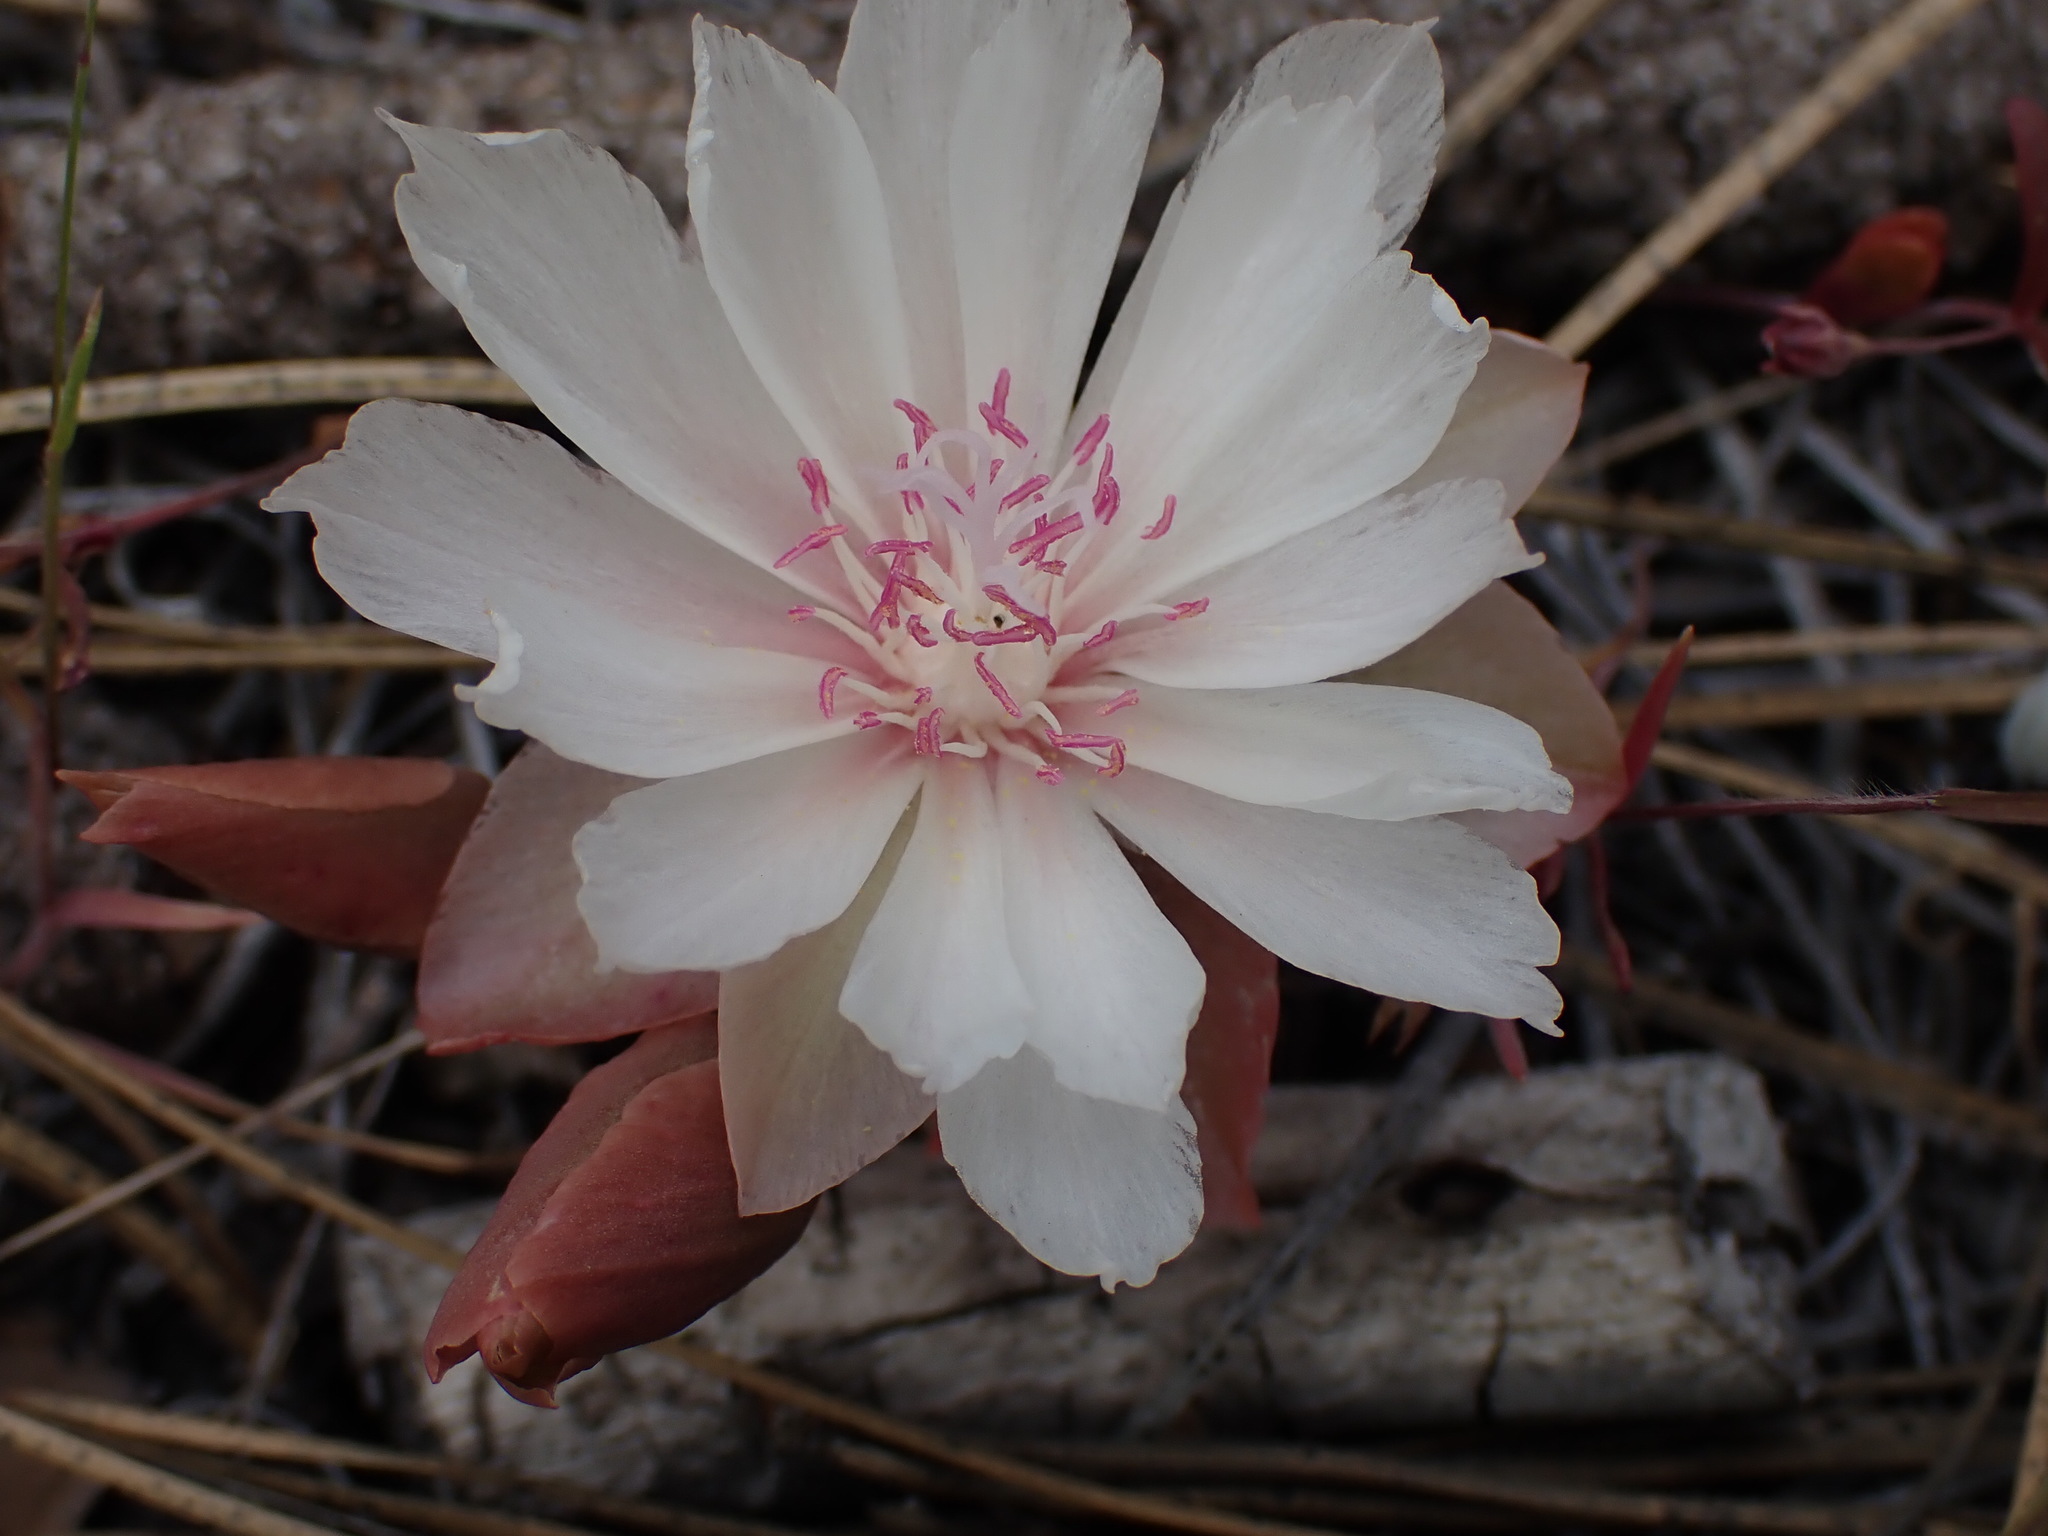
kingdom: Plantae
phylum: Tracheophyta
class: Magnoliopsida
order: Caryophyllales
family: Montiaceae
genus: Lewisia
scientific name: Lewisia rediviva
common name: Bitter-root
